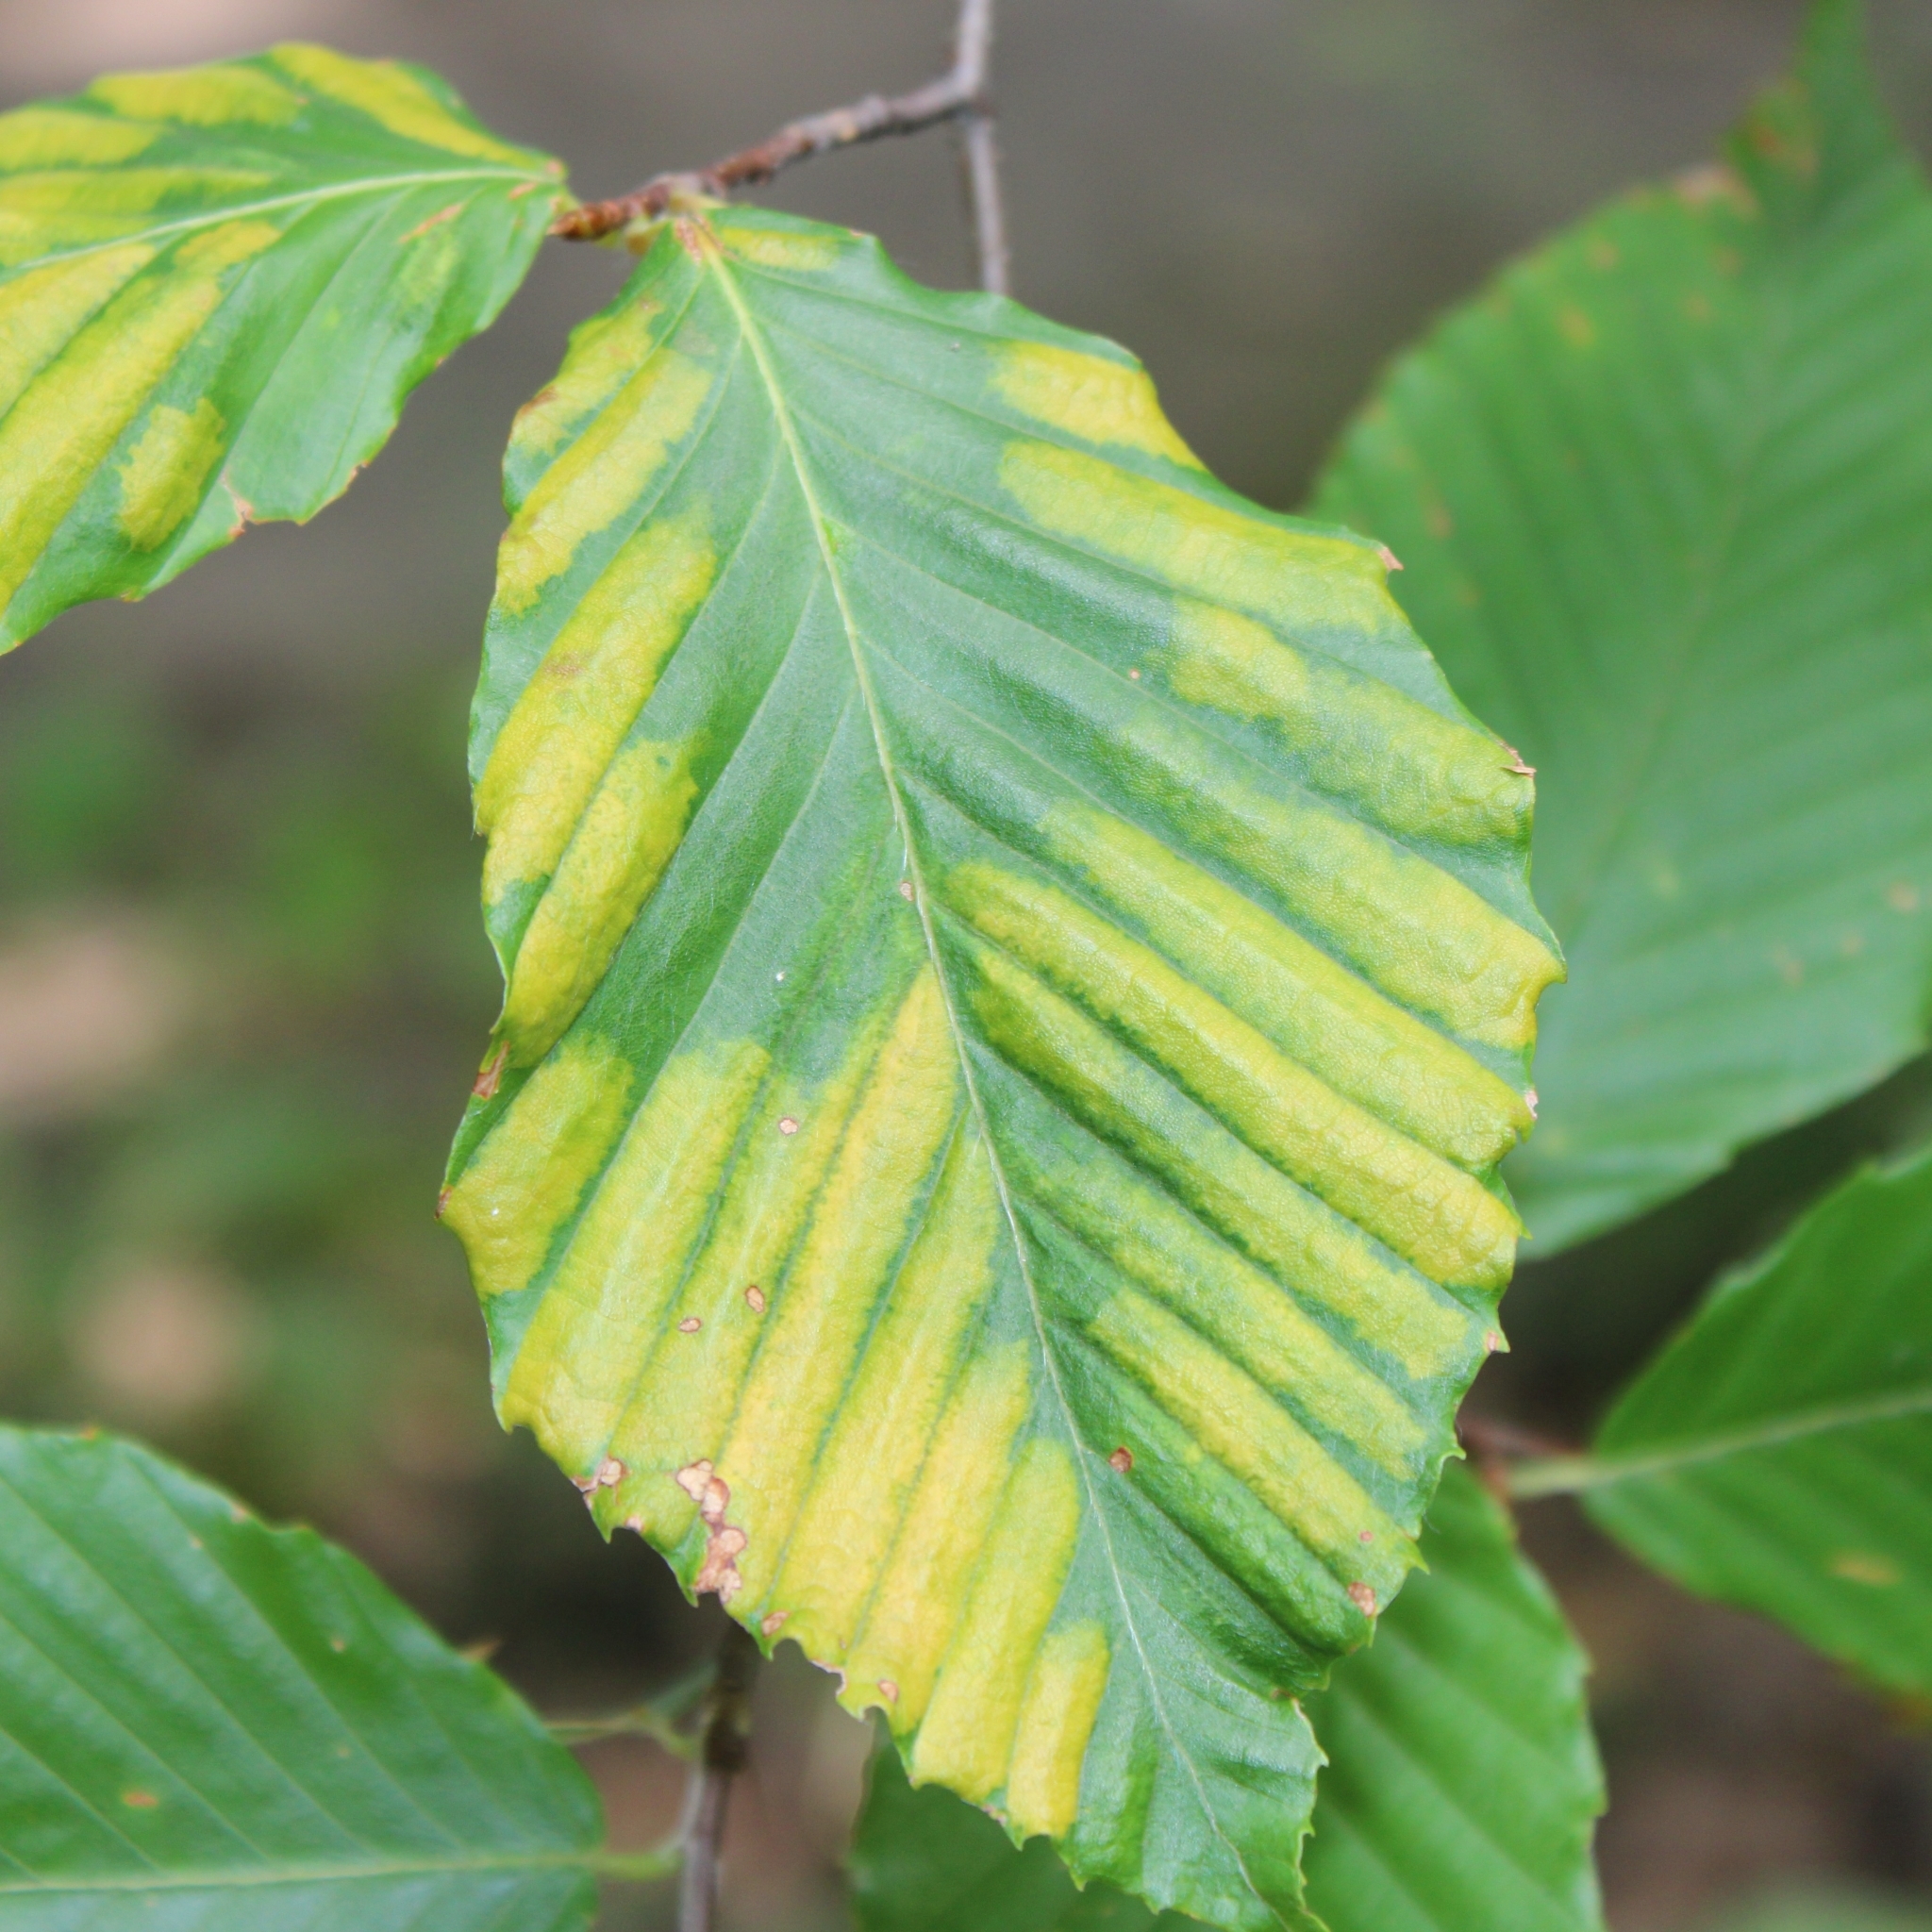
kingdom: Animalia
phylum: Nematoda
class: Chromadorea
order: Rhabditida
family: Anguinidae
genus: Litylenchus
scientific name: Litylenchus crenatae
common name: Beech leaf disease
